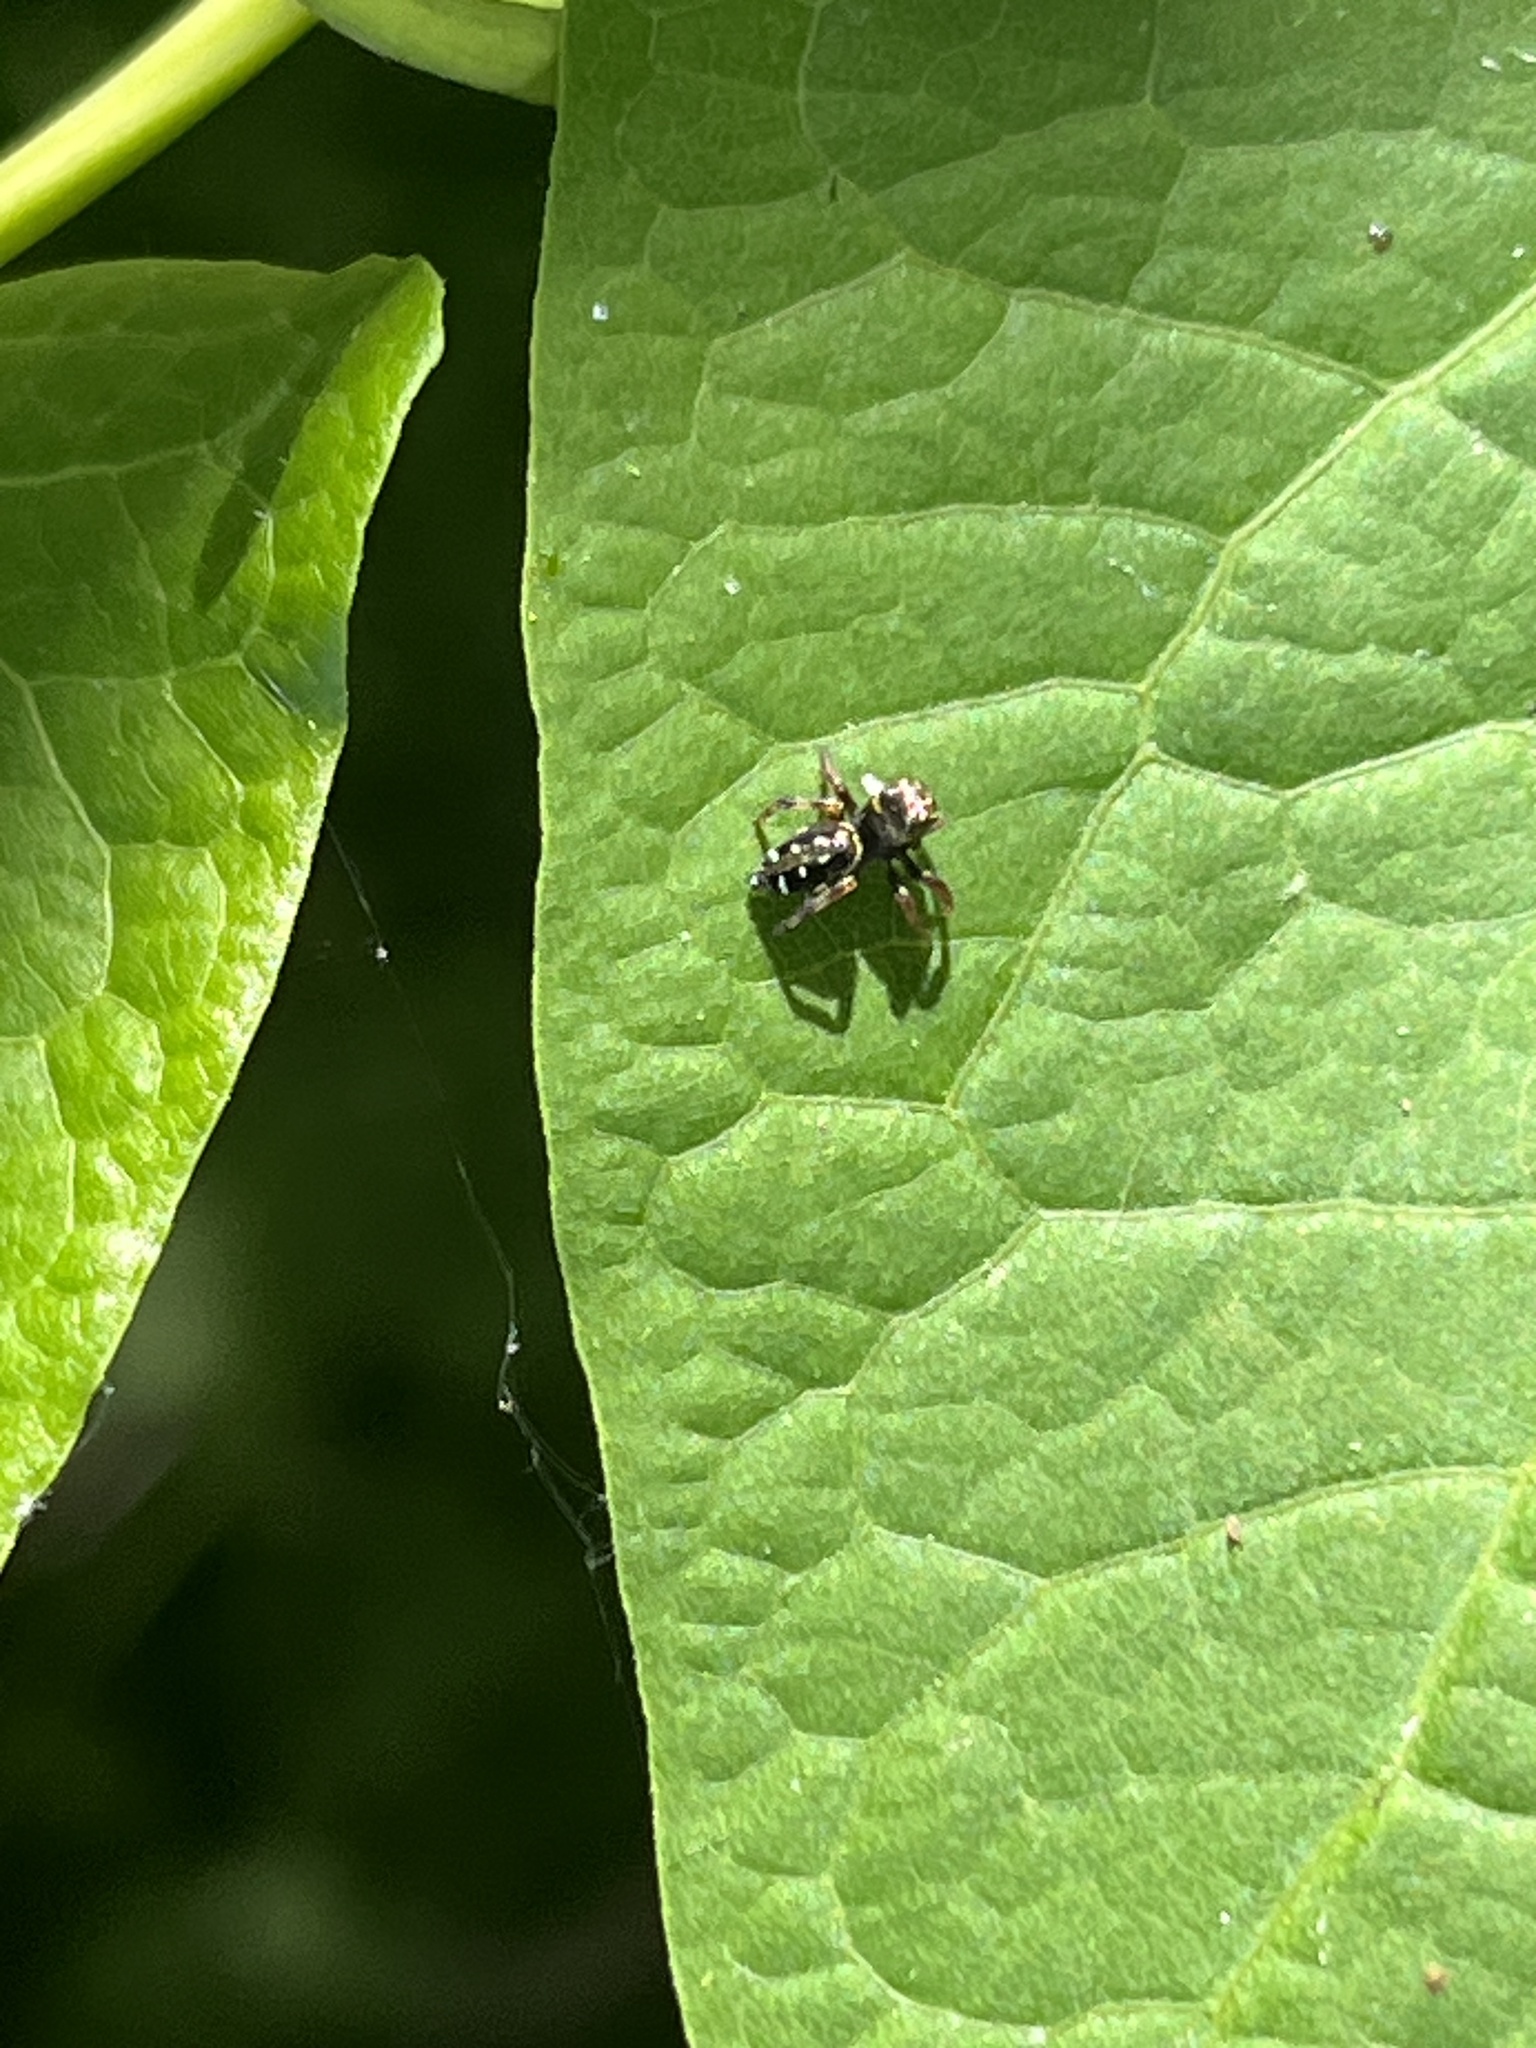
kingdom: Animalia
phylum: Arthropoda
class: Arachnida
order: Araneae
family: Salticidae
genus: Paraphidippus
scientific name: Paraphidippus aurantius
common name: Jumping spiders
